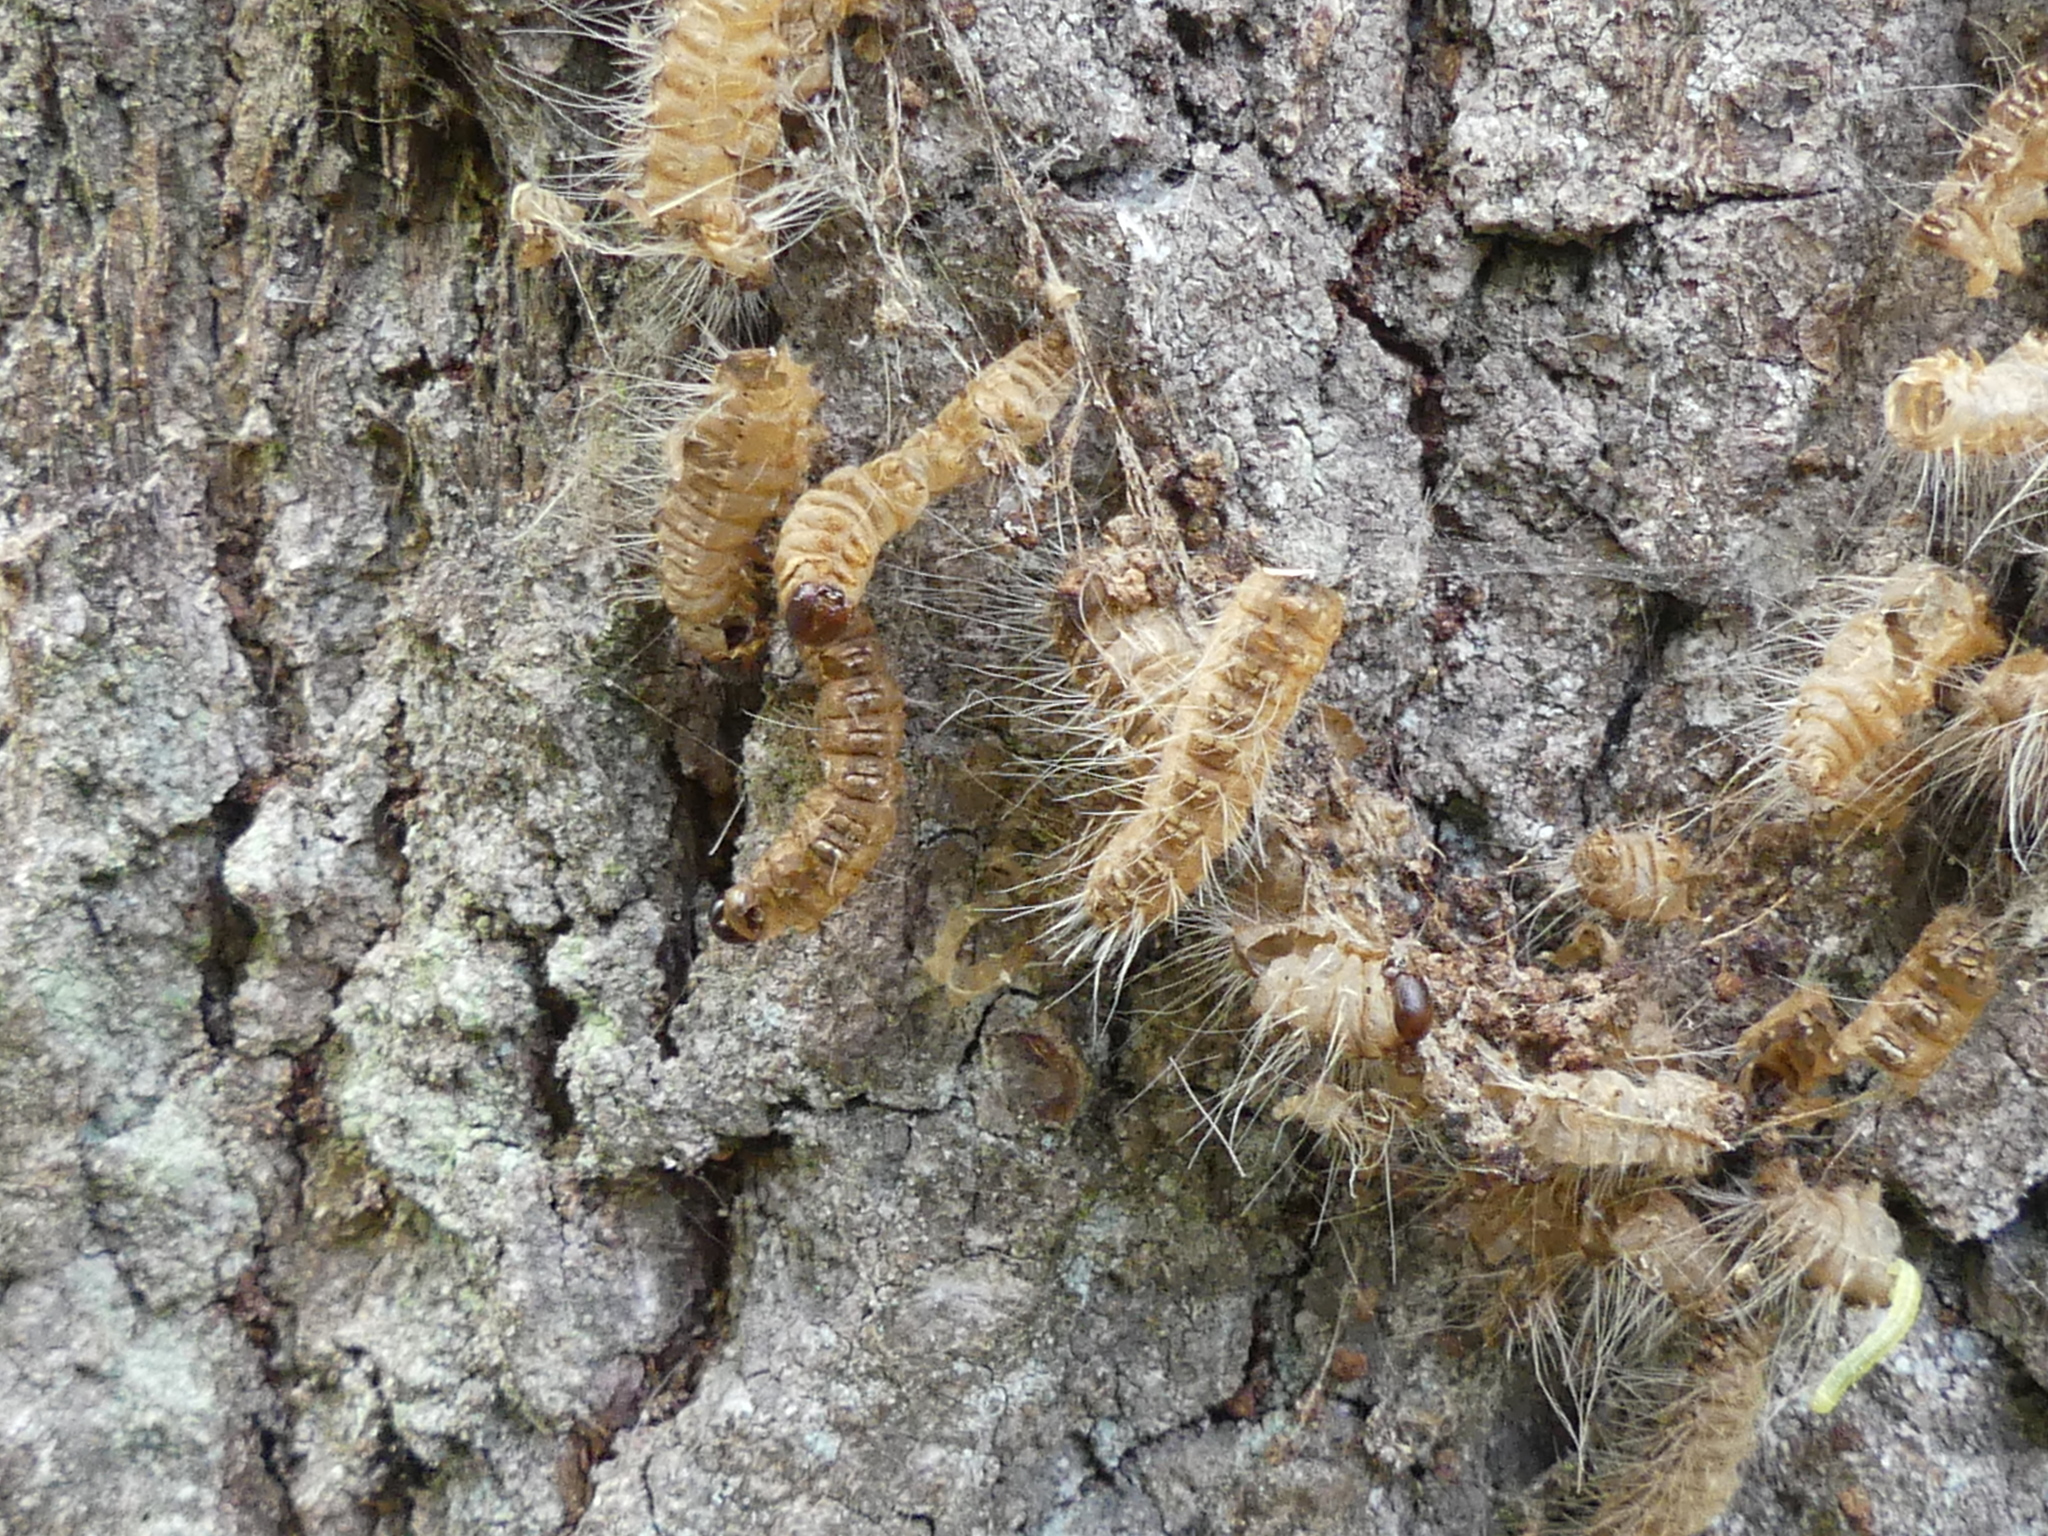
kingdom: Animalia
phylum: Arthropoda
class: Insecta
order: Lepidoptera
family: Notodontidae
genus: Thaumetopoea
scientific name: Thaumetopoea processionea
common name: Oak processionea
